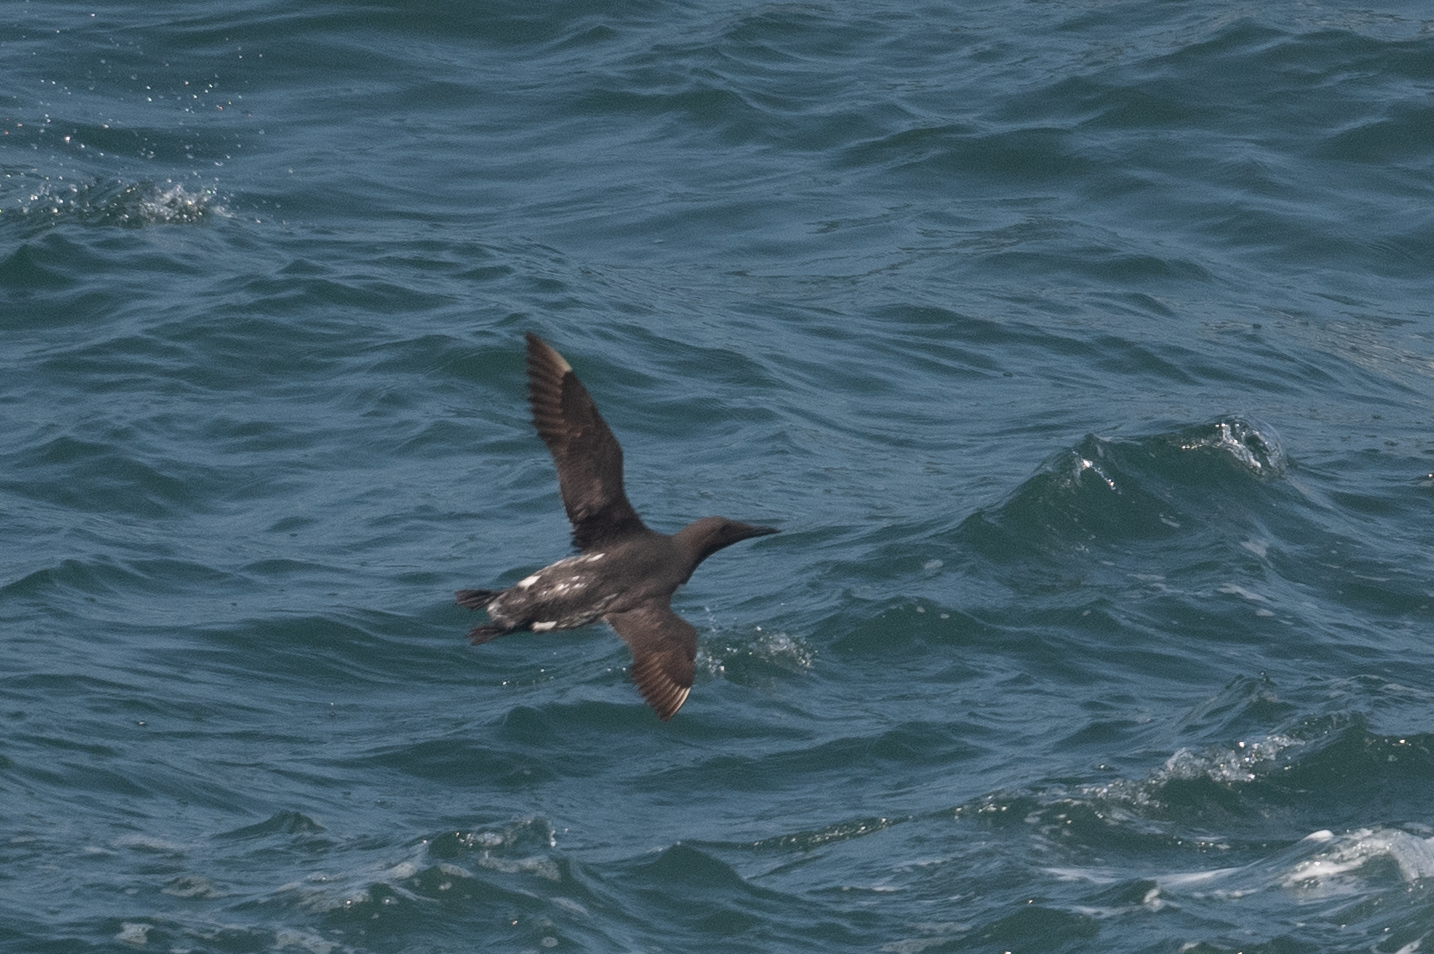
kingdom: Animalia
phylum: Chordata
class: Aves
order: Charadriiformes
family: Alcidae
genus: Uria
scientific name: Uria aalge
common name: Common murre
